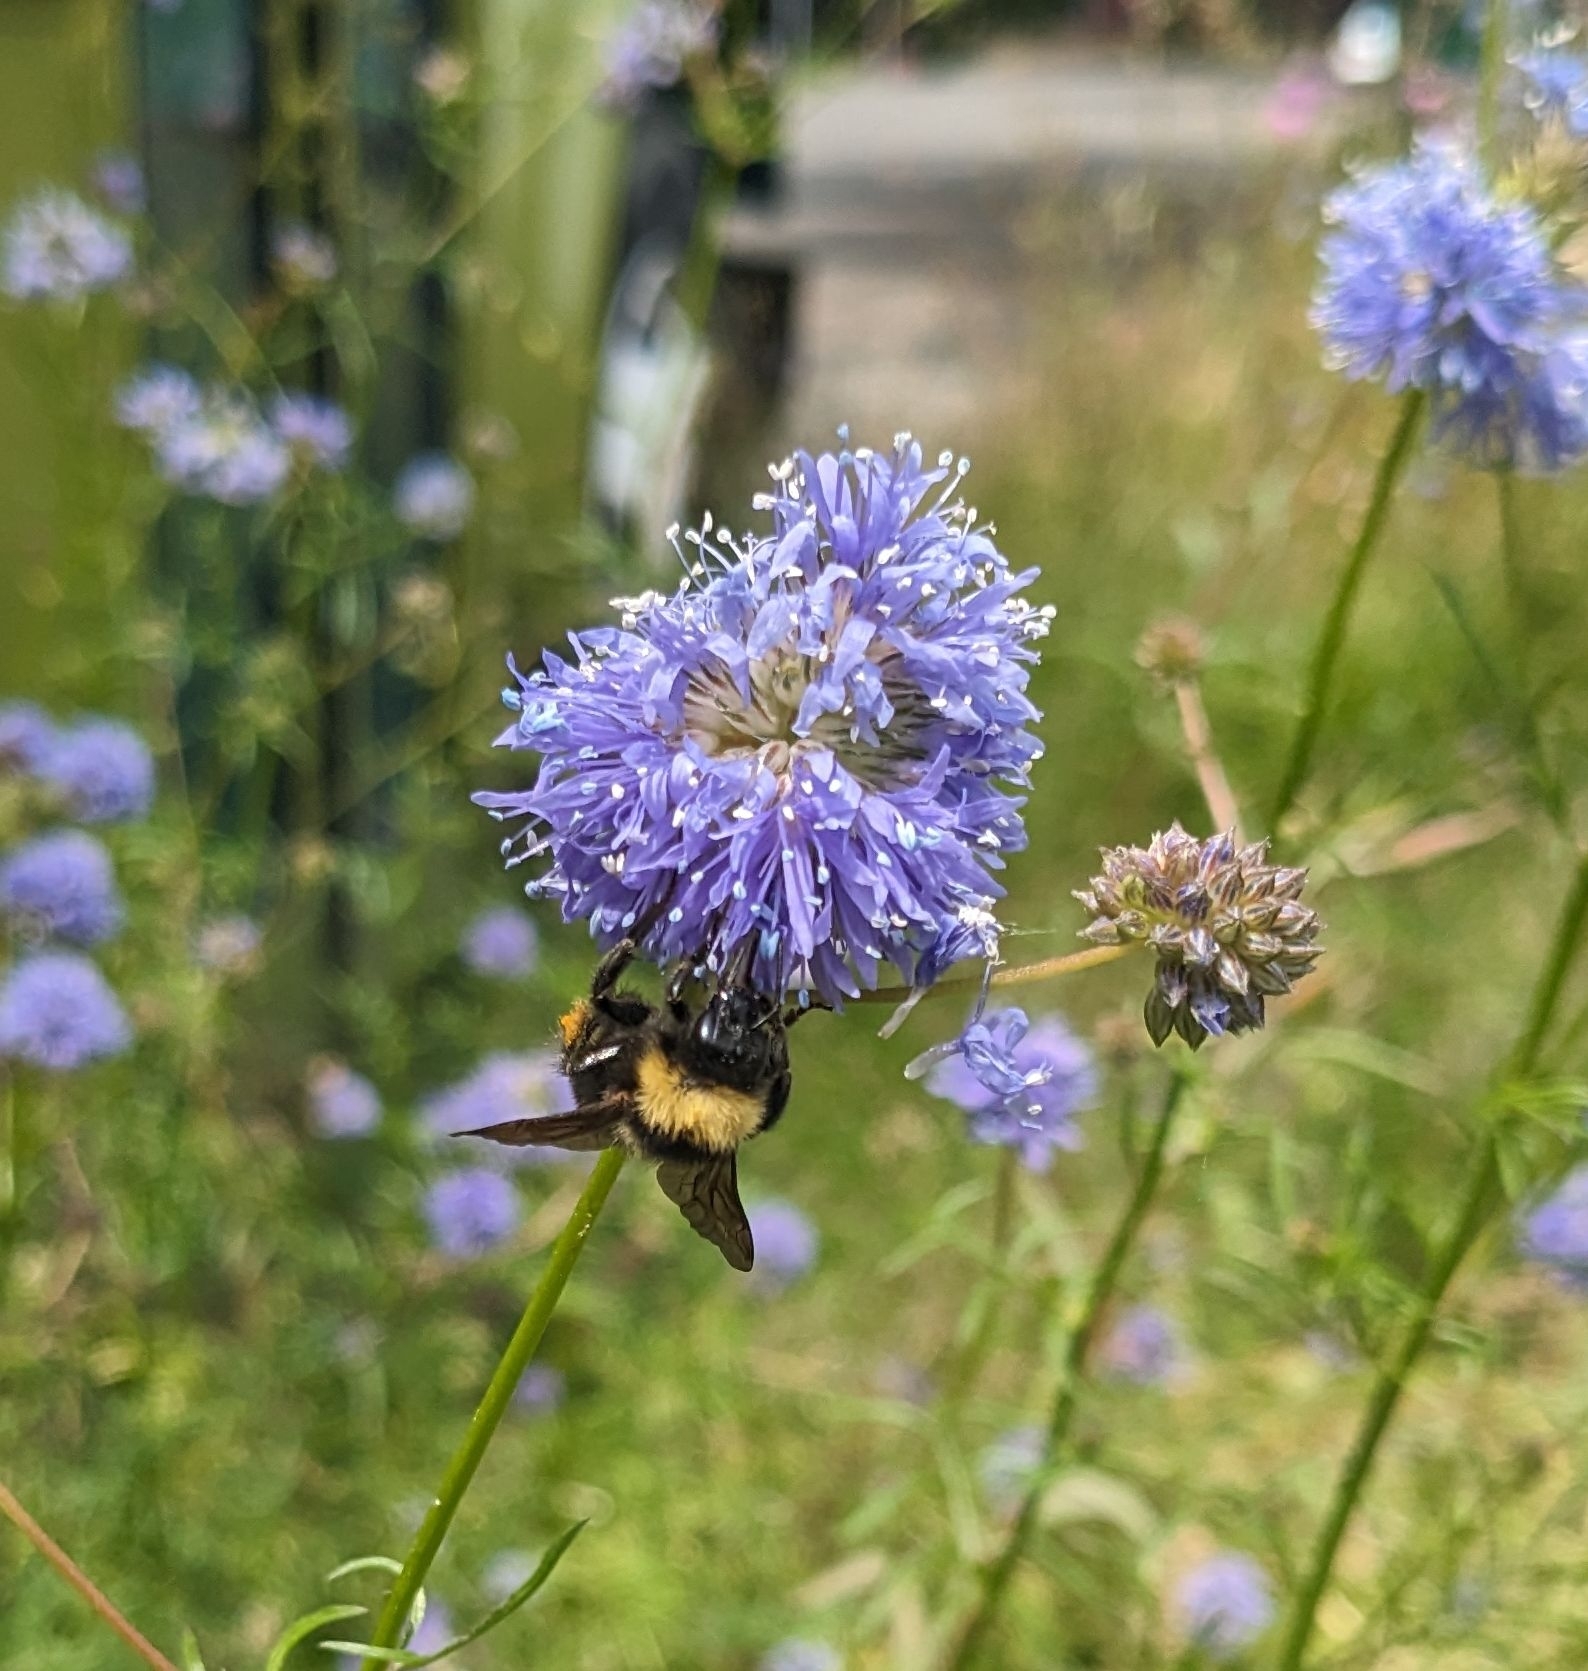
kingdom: Animalia
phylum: Arthropoda
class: Insecta
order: Hymenoptera
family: Apidae
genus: Bombus
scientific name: Bombus fervidus
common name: Yellow bumble bee
